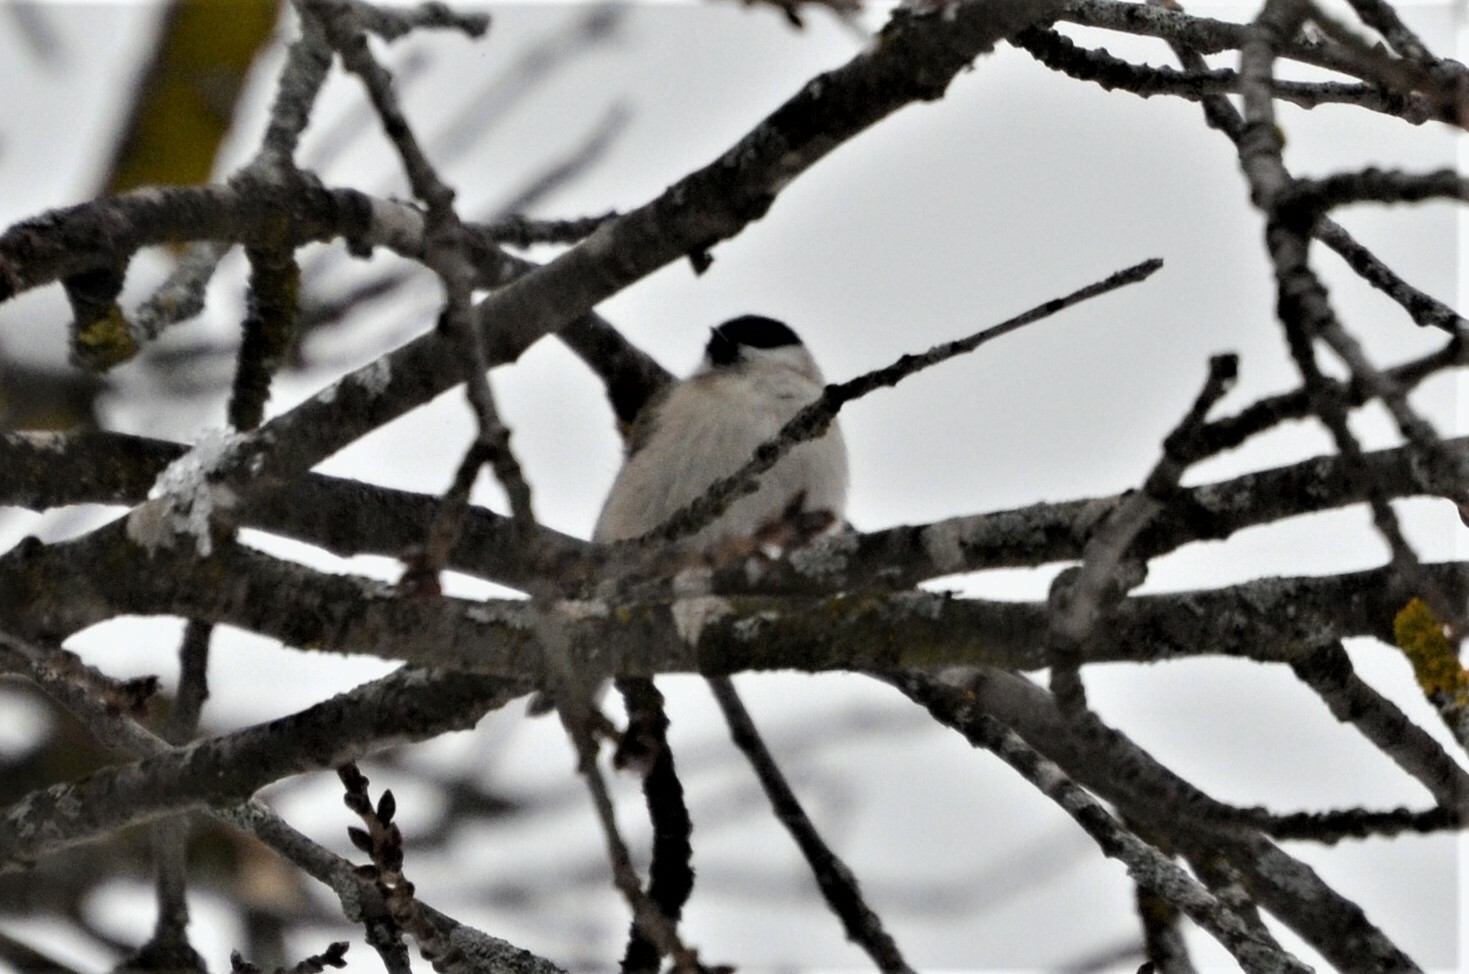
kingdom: Animalia
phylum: Chordata
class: Aves
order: Passeriformes
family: Paridae
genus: Poecile
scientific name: Poecile palustris
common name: Marsh tit
